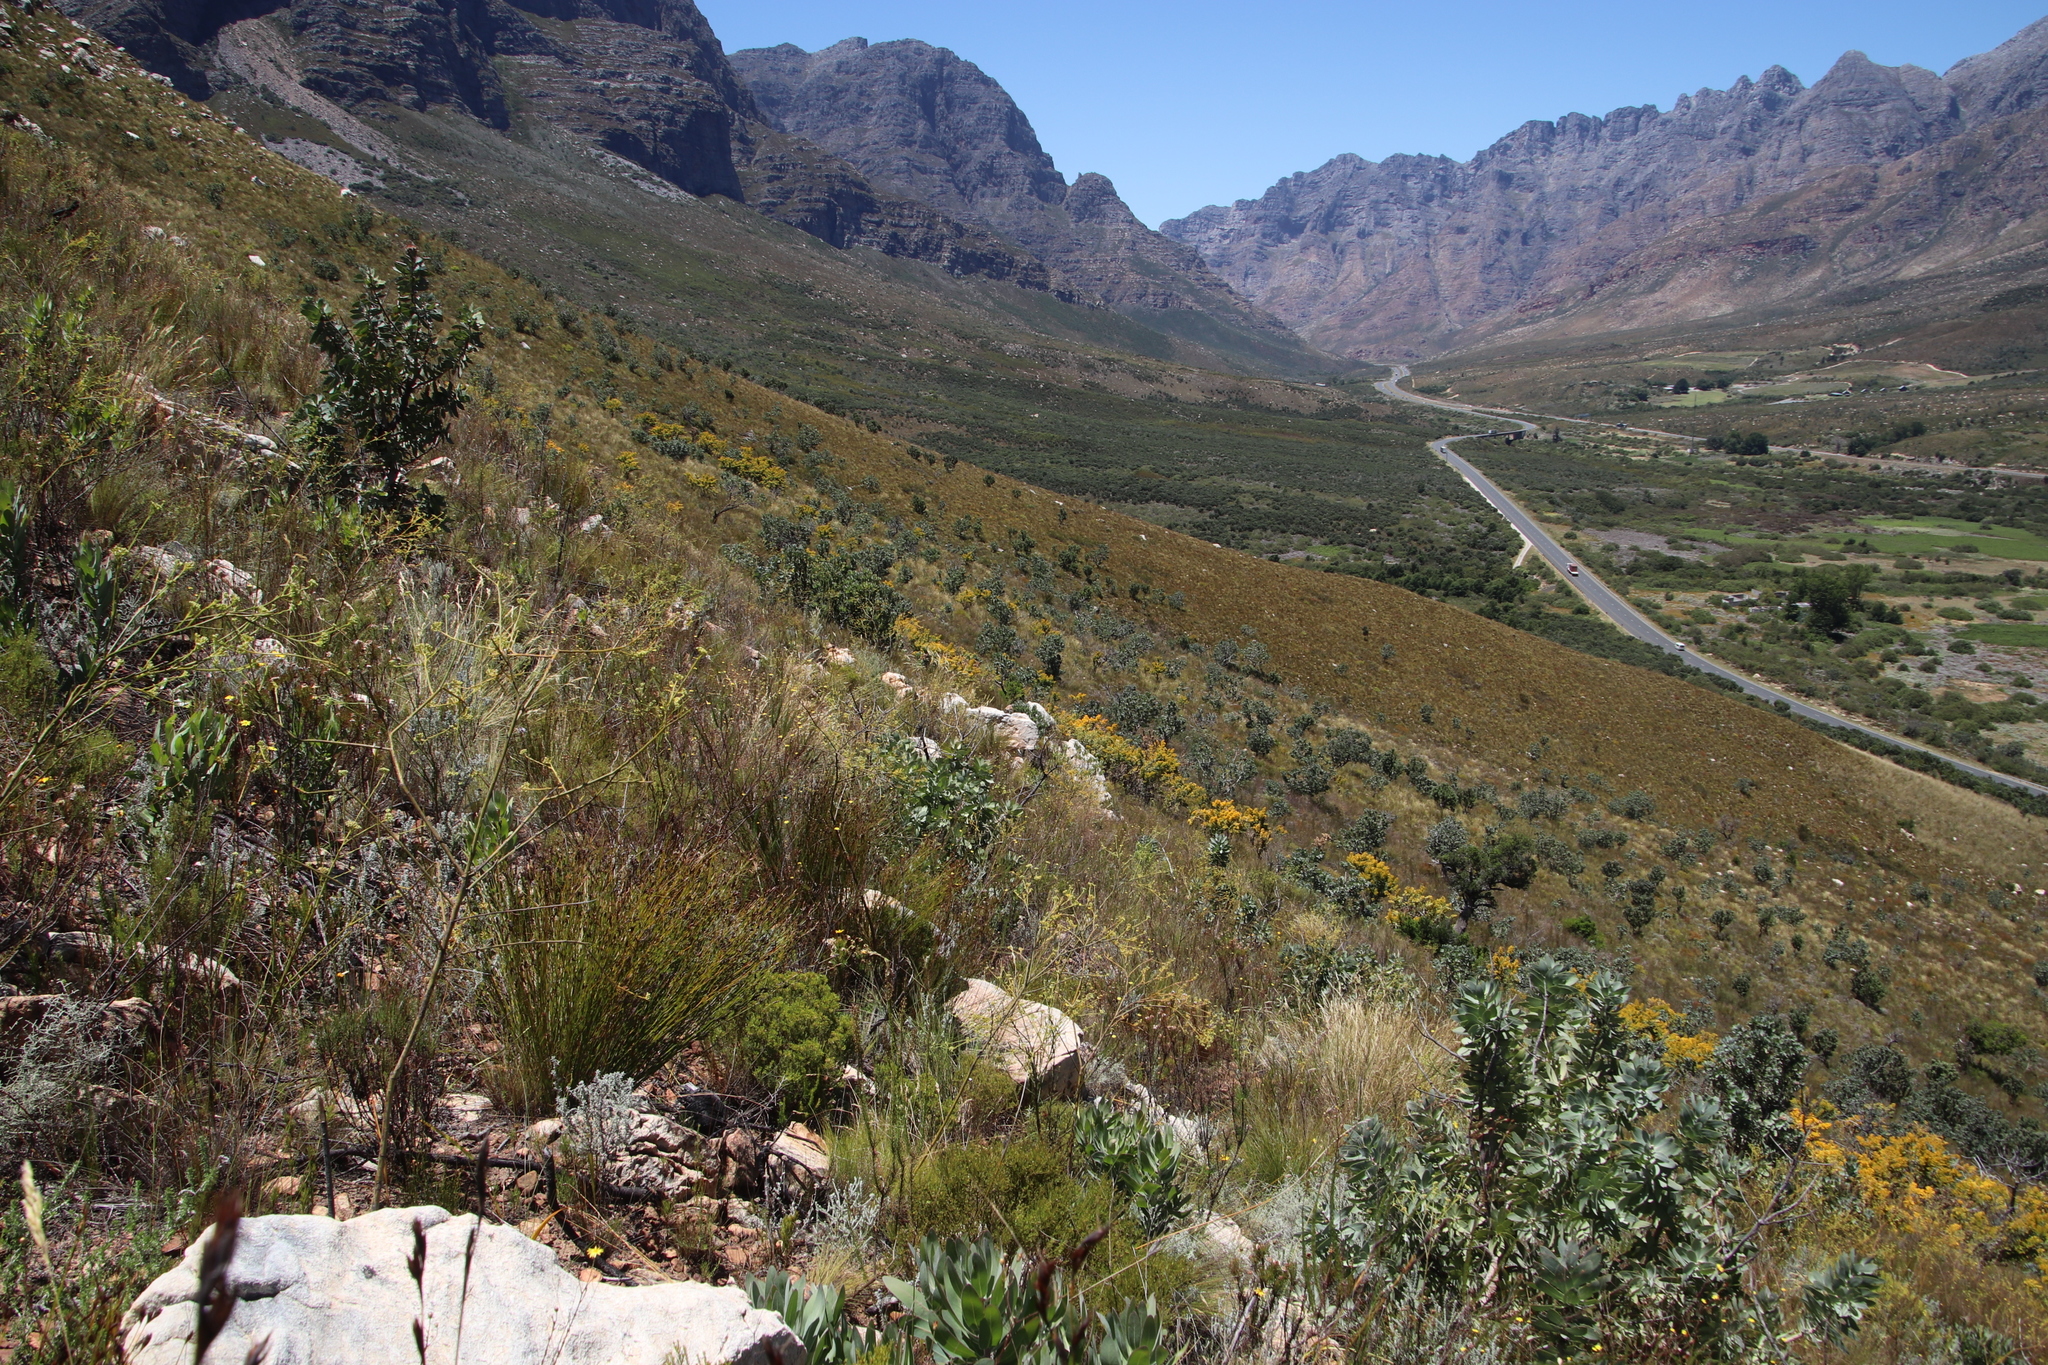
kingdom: Plantae
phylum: Tracheophyta
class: Magnoliopsida
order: Santalales
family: Thesiaceae
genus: Thesium
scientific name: Thesium strictum
